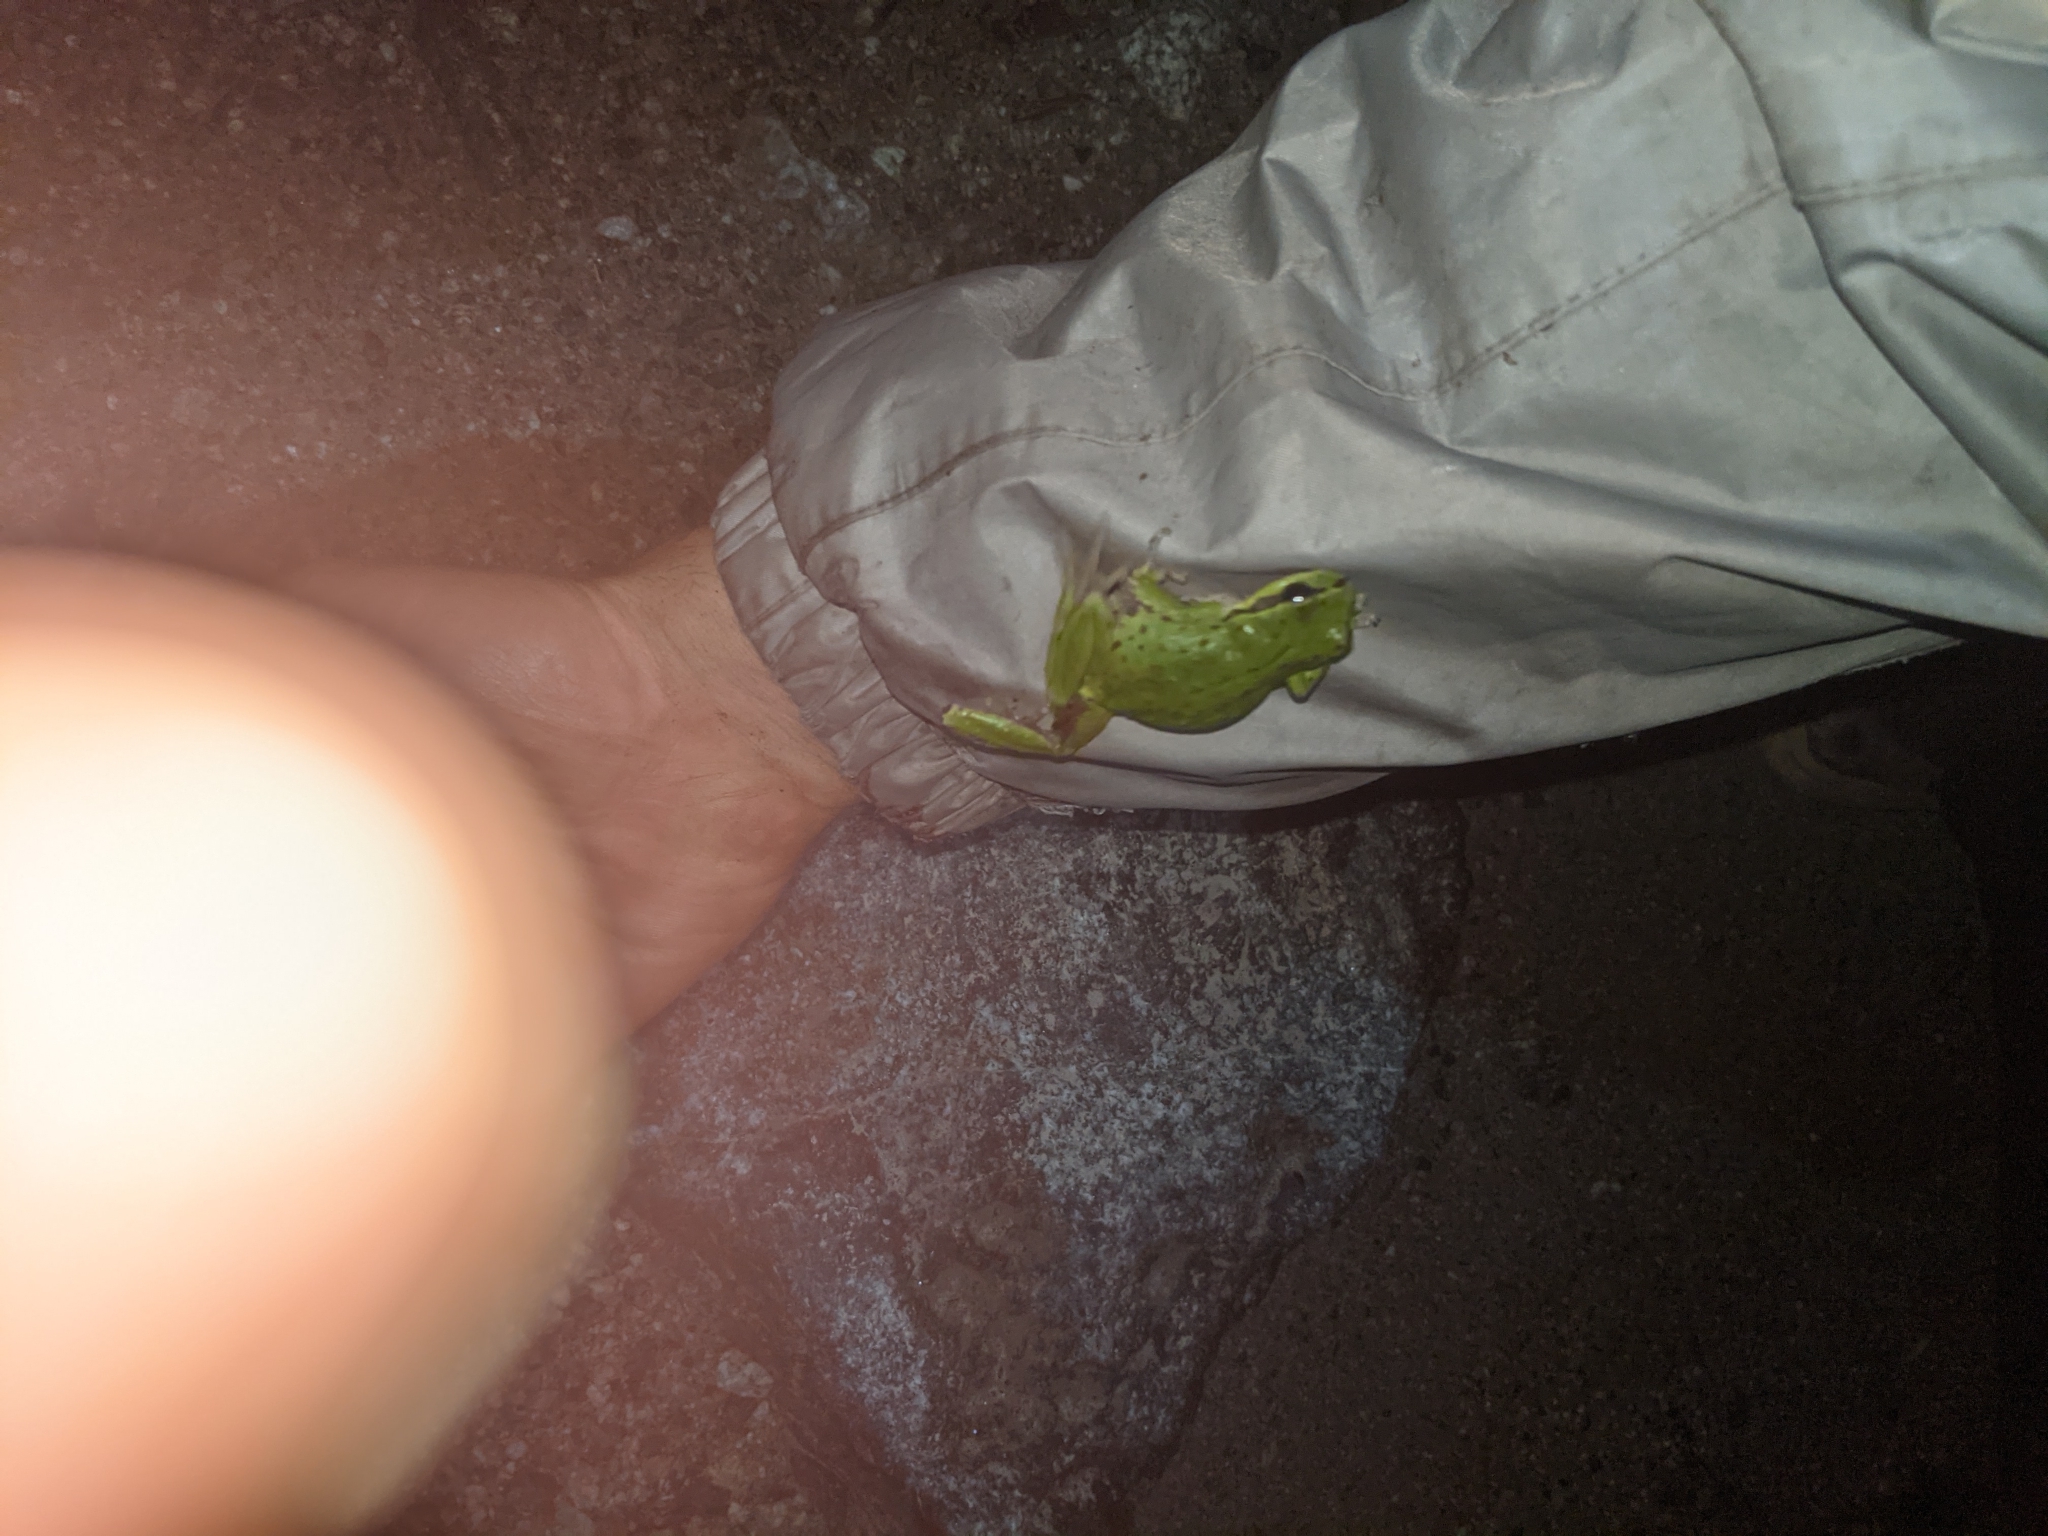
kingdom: Animalia
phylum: Chordata
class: Amphibia
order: Anura
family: Hylidae
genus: Pseudacris
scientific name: Pseudacris regilla
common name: Pacific chorus frog
